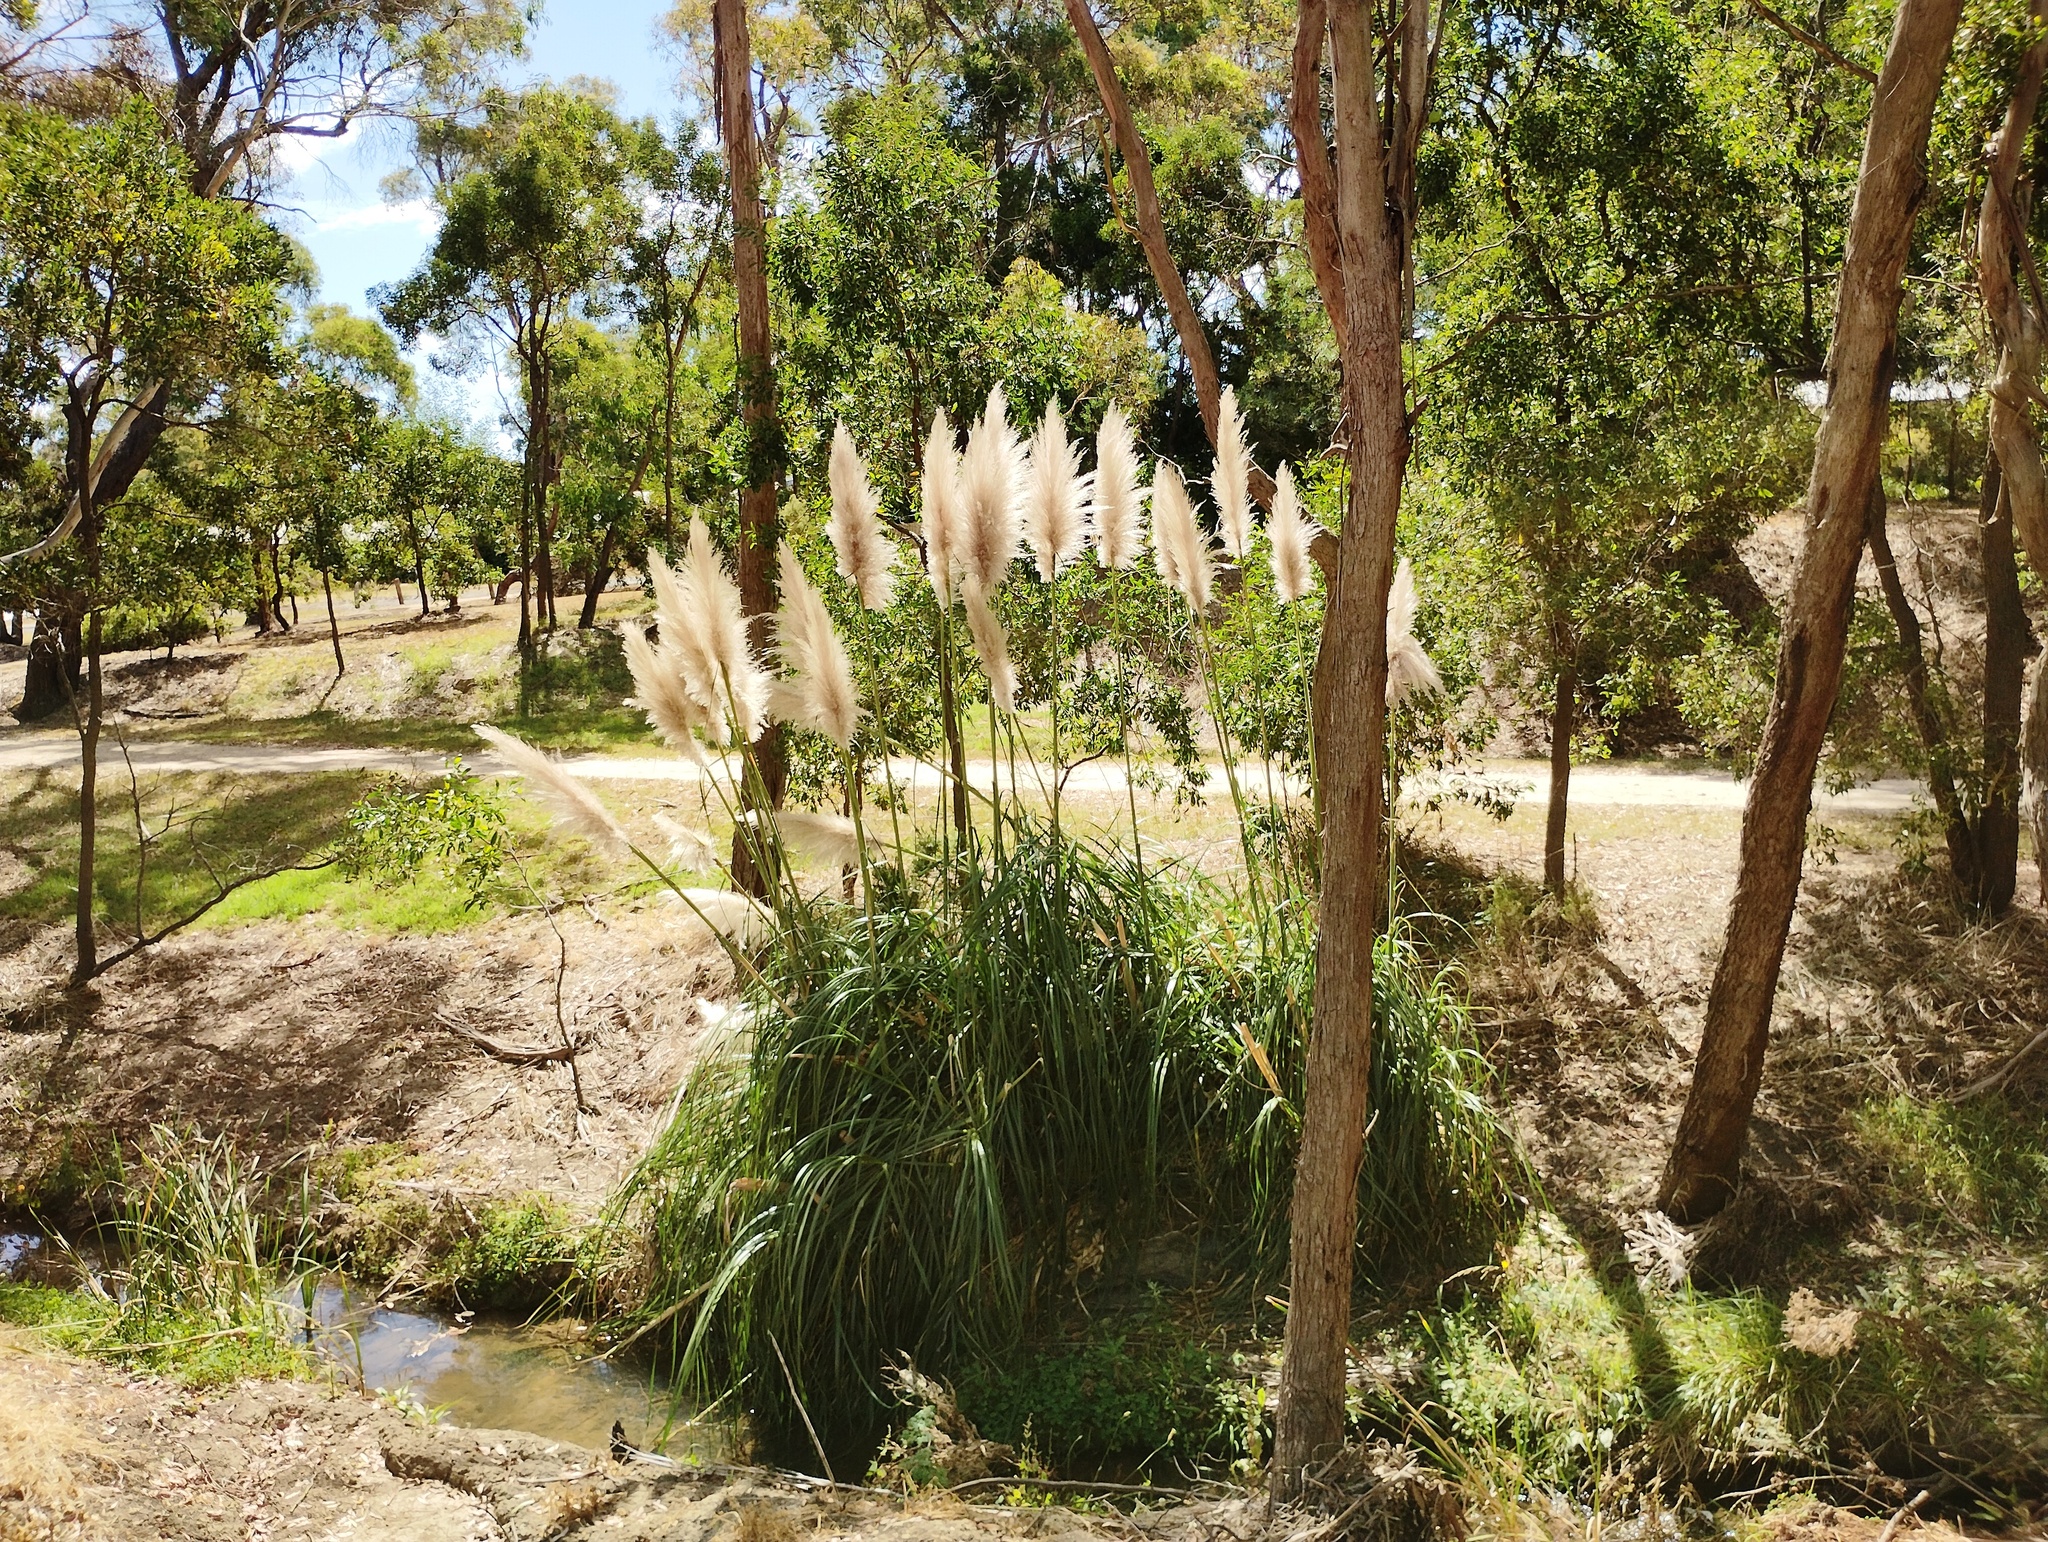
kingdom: Plantae
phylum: Tracheophyta
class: Liliopsida
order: Poales
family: Poaceae
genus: Cortaderia
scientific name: Cortaderia selloana
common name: Uruguayan pampas grass
